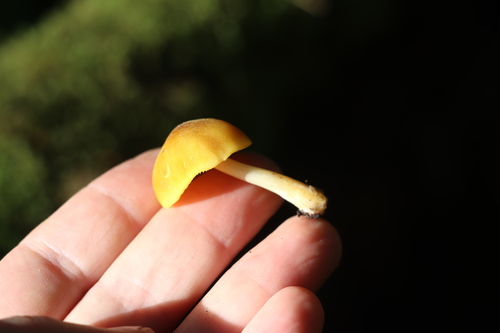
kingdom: Fungi
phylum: Basidiomycota
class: Agaricomycetes
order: Agaricales
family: Pluteaceae
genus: Pluteus
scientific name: Pluteus leoninus
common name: Lion shield
